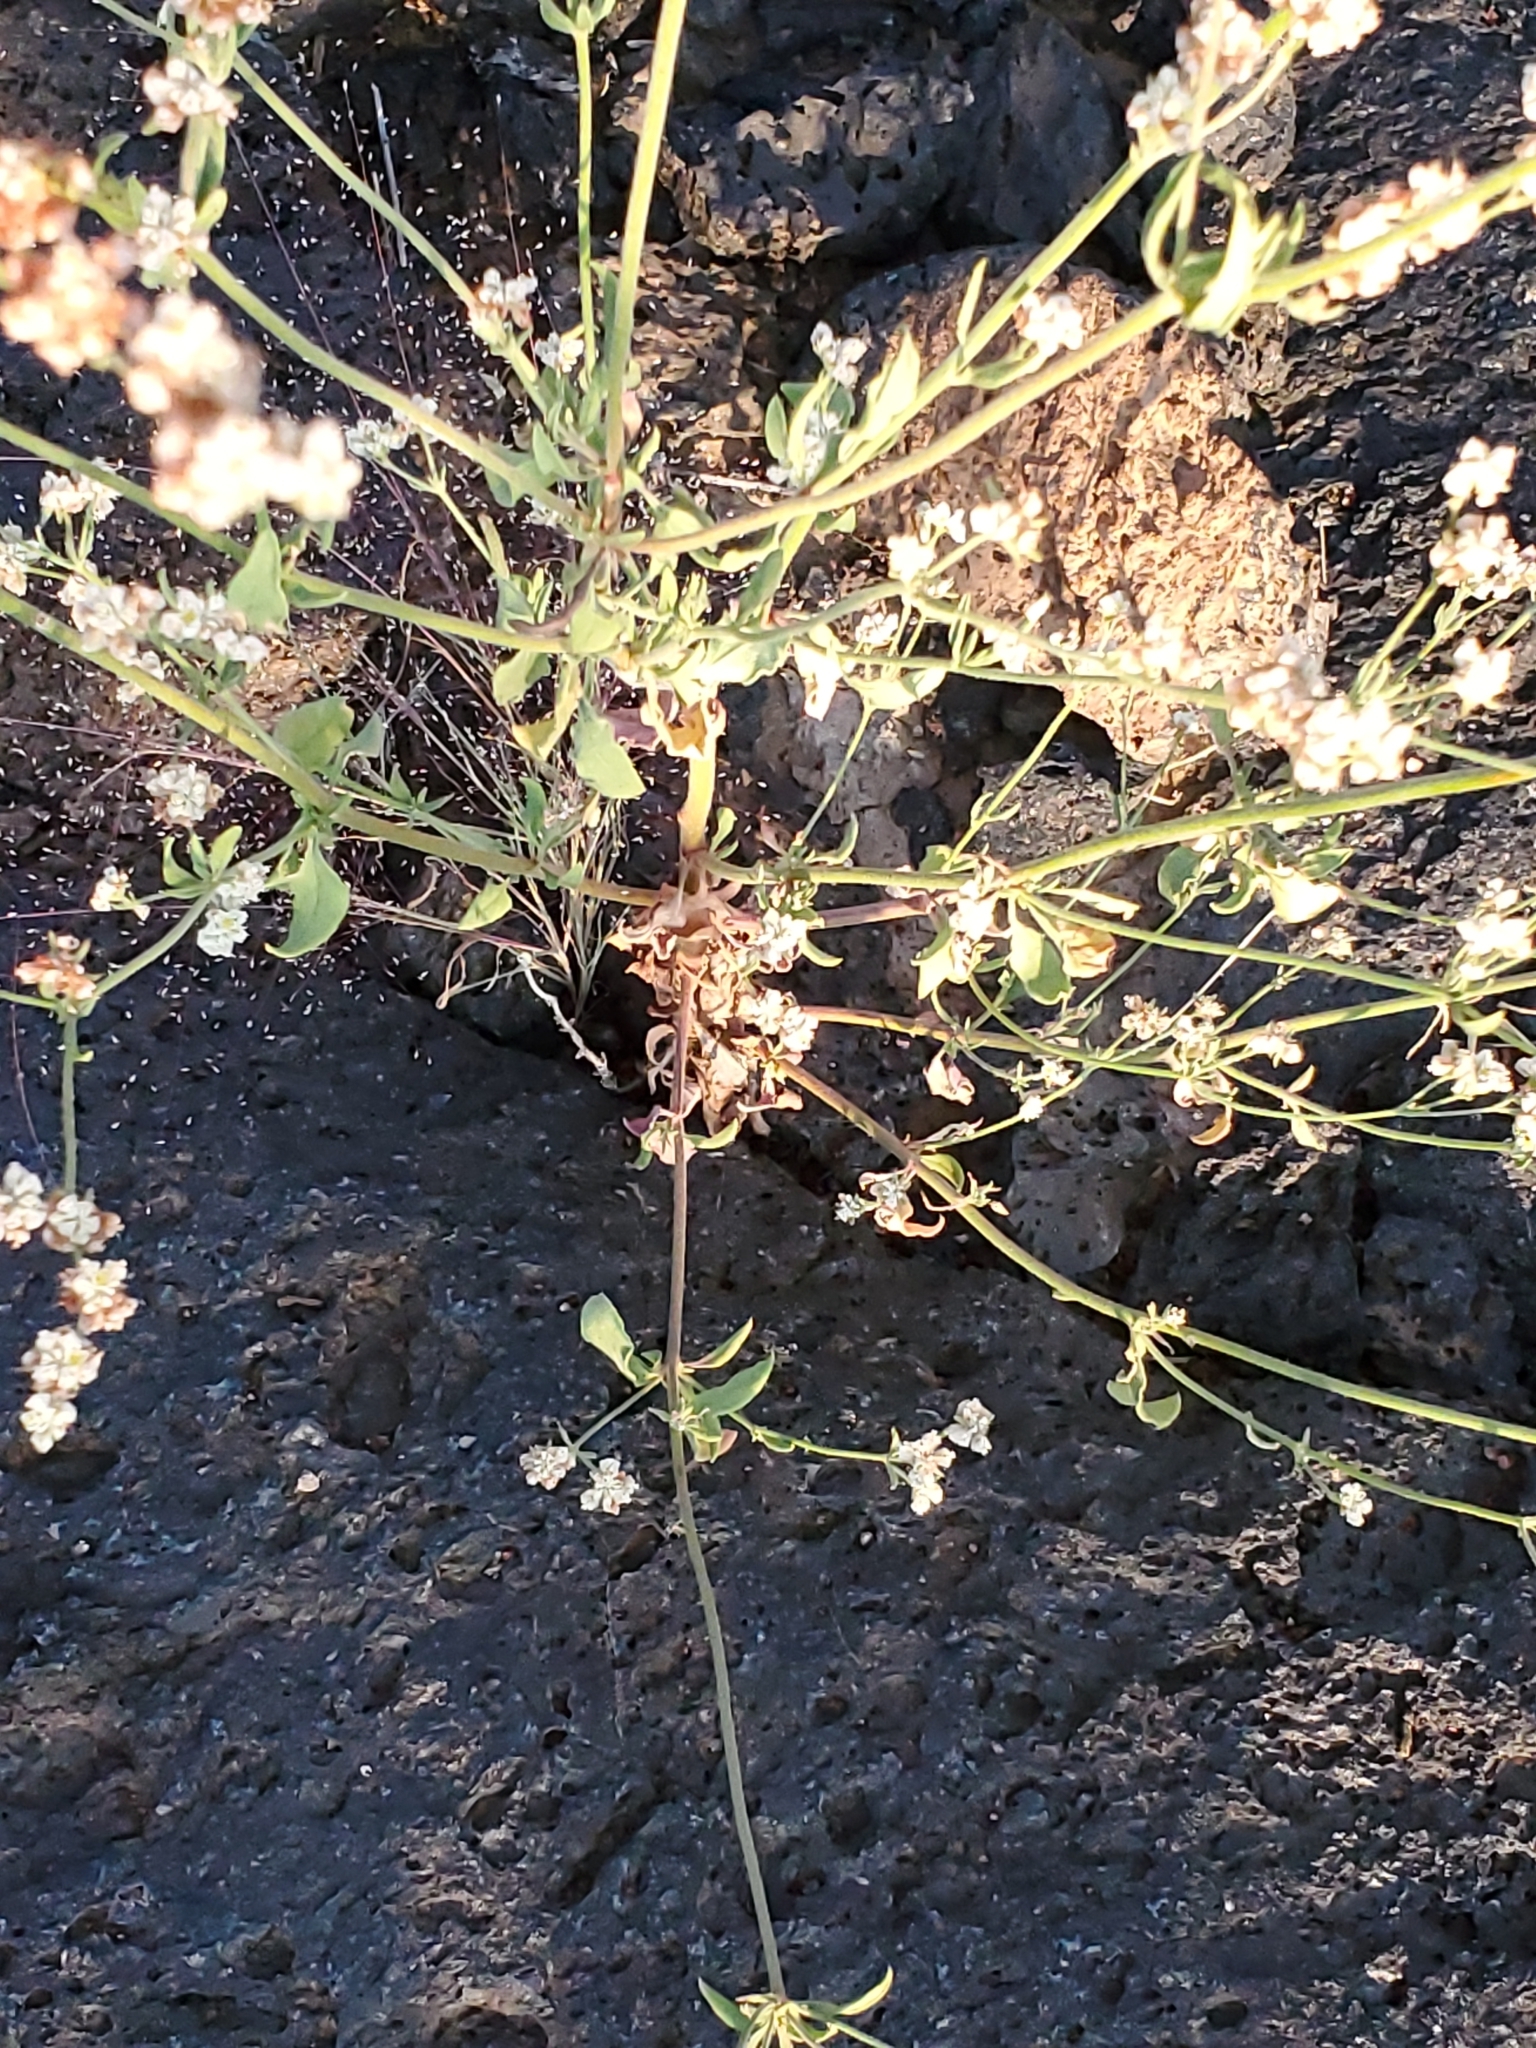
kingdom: Plantae
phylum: Tracheophyta
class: Magnoliopsida
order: Caryophyllales
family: Polygonaceae
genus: Eriogonum
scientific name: Eriogonum abertianum
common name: Abert's wild buckwheat
